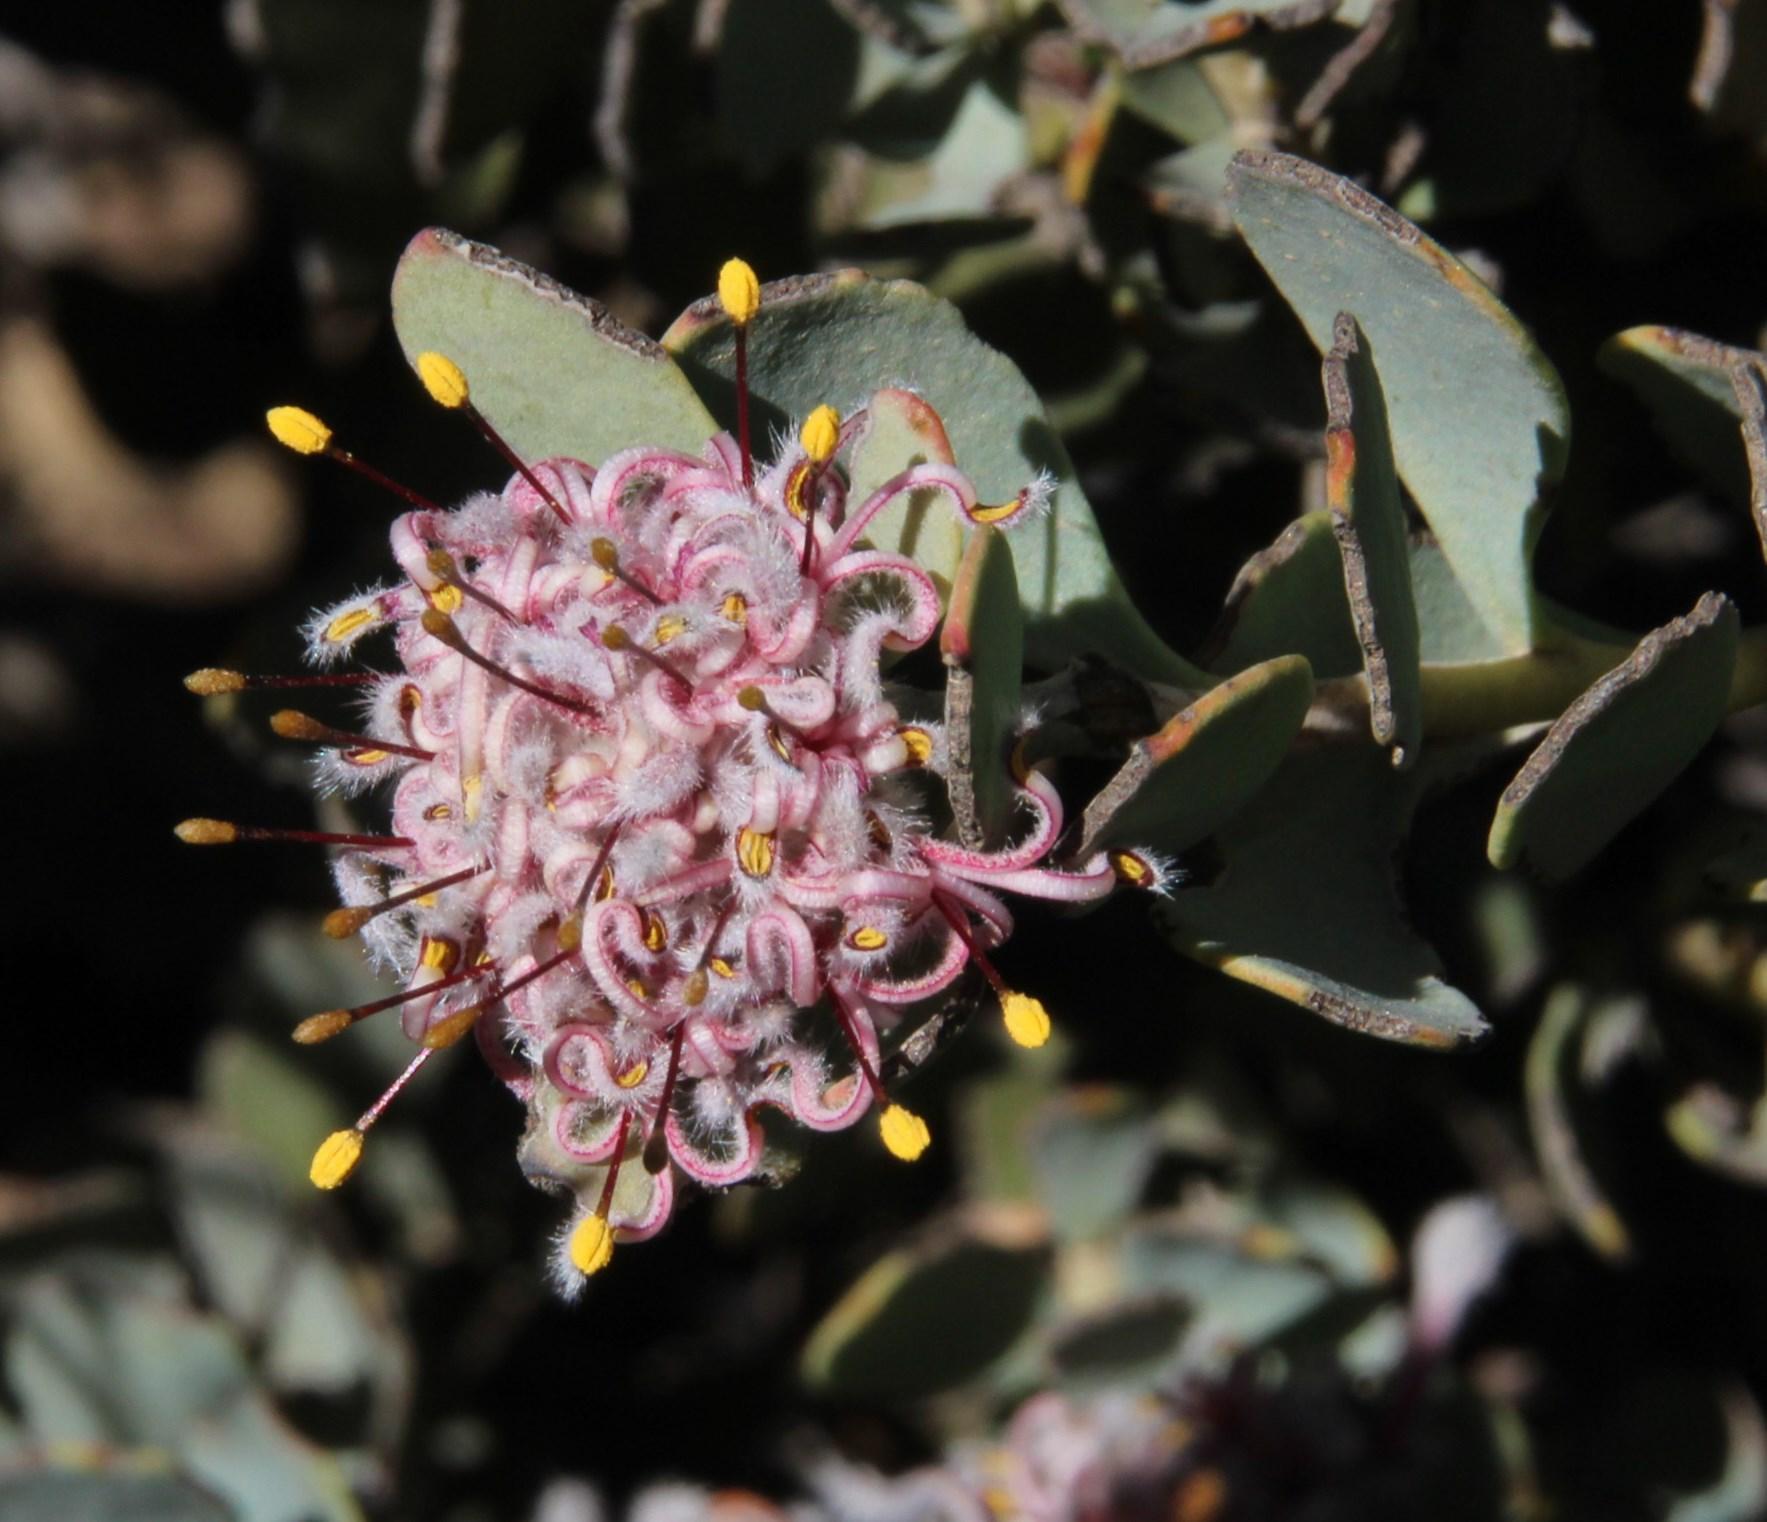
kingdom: Plantae
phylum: Tracheophyta
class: Magnoliopsida
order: Proteales
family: Proteaceae
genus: Vexatorella
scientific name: Vexatorella amoena
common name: Swartruggens vexator
